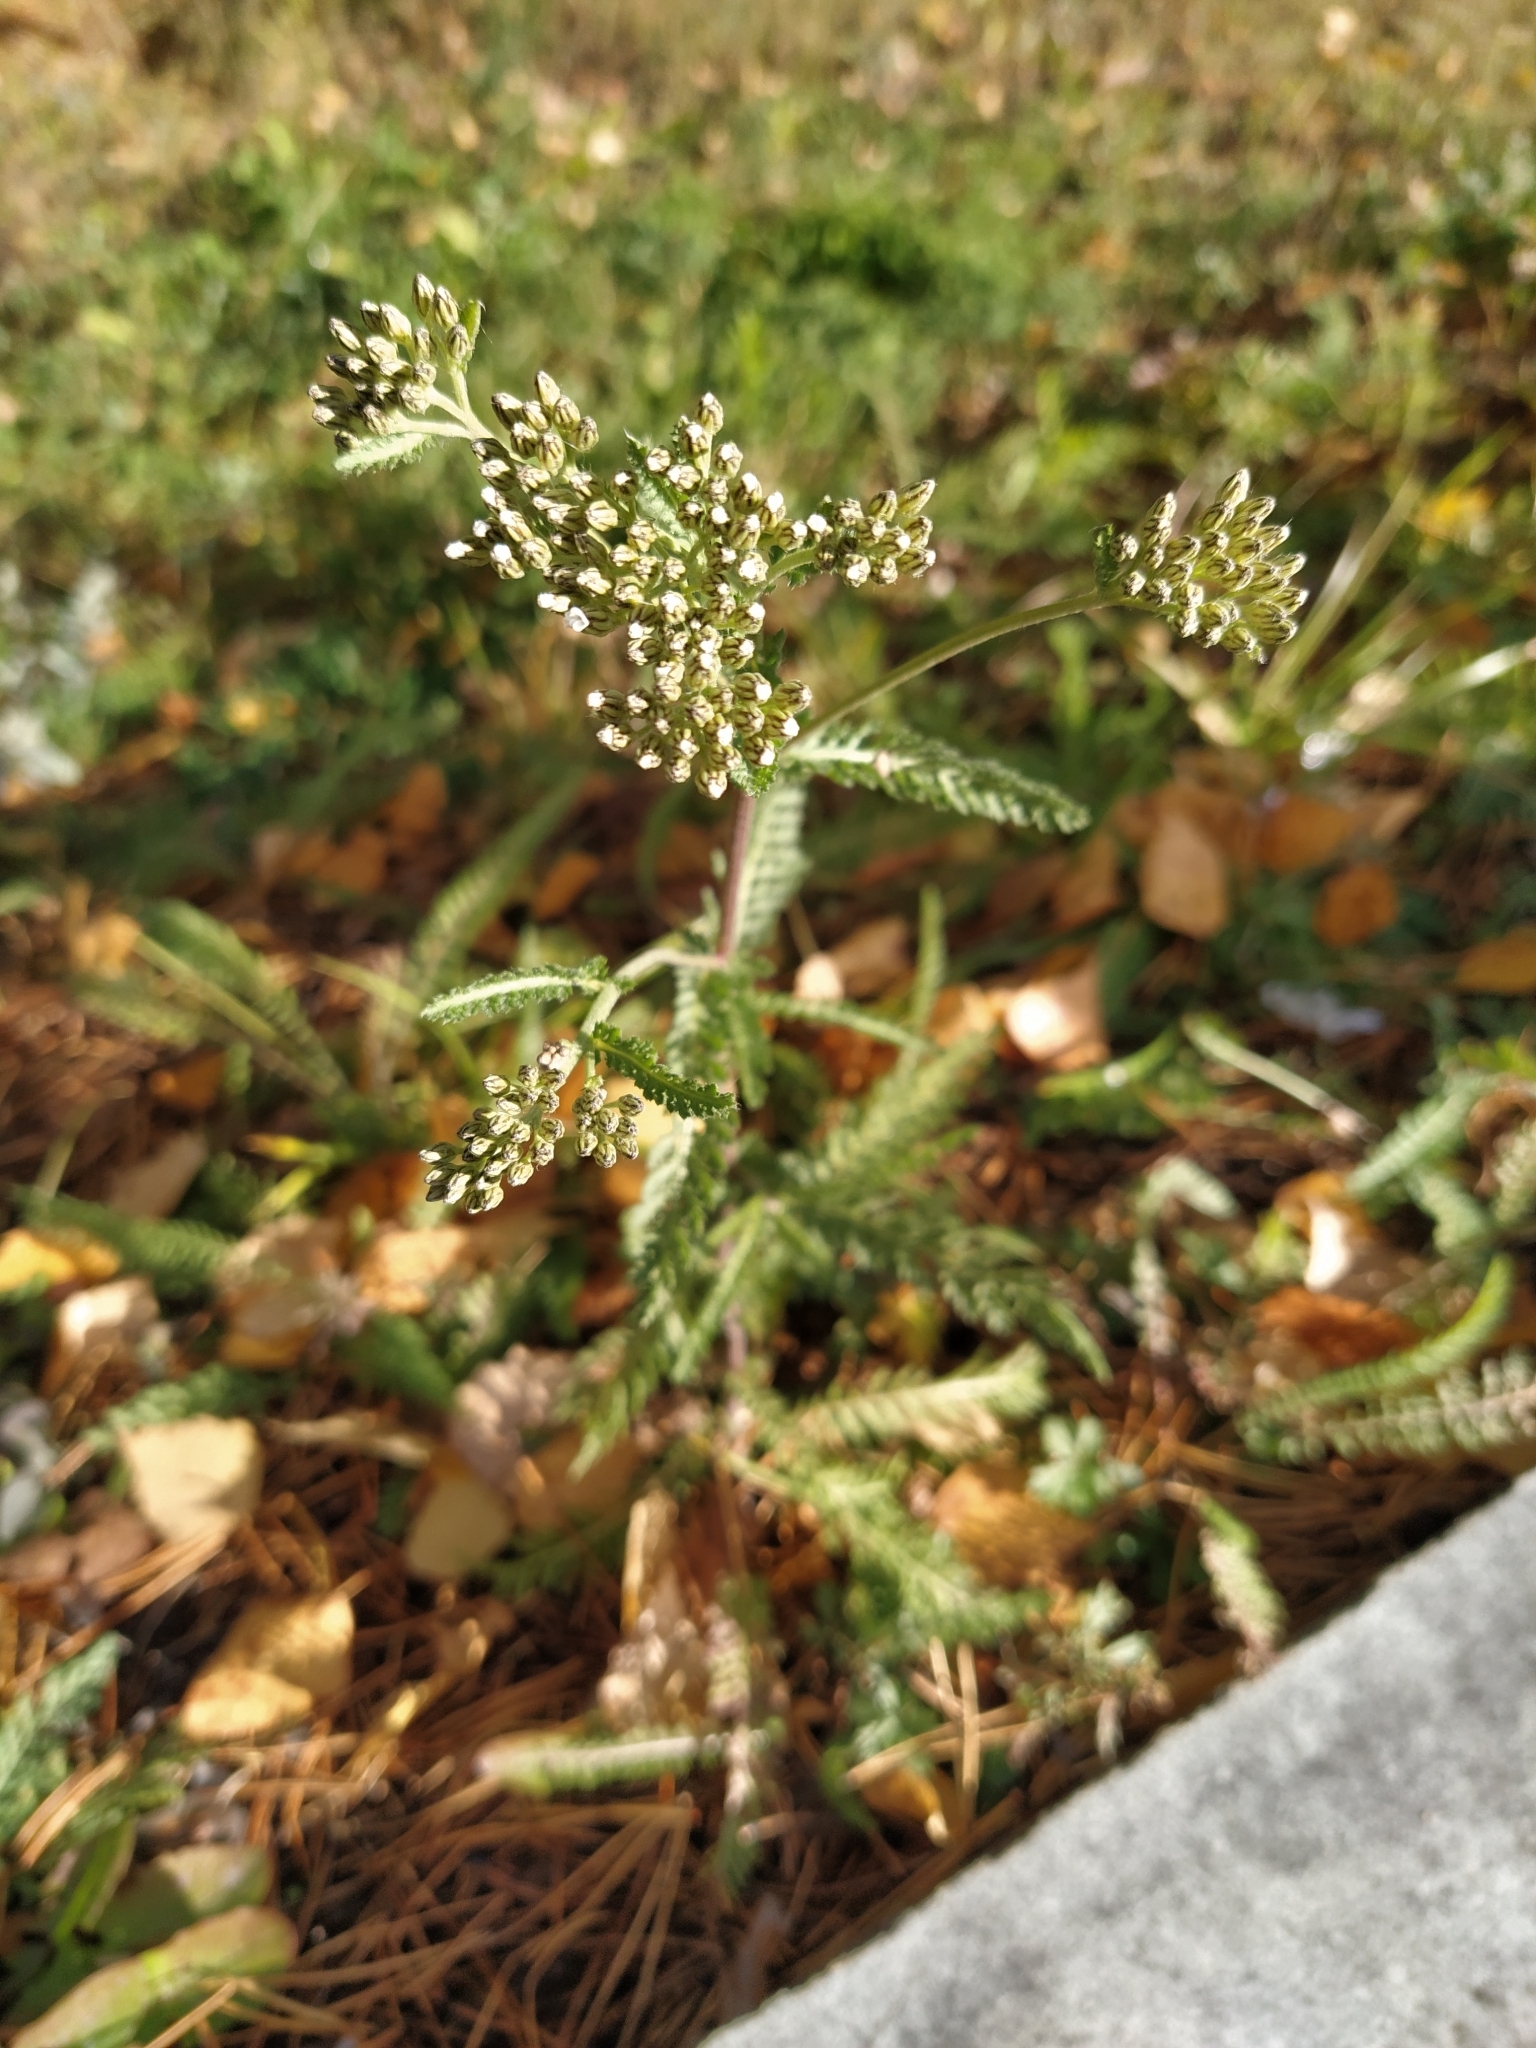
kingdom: Plantae
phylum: Tracheophyta
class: Magnoliopsida
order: Asterales
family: Asteraceae
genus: Achillea
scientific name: Achillea asiatica
